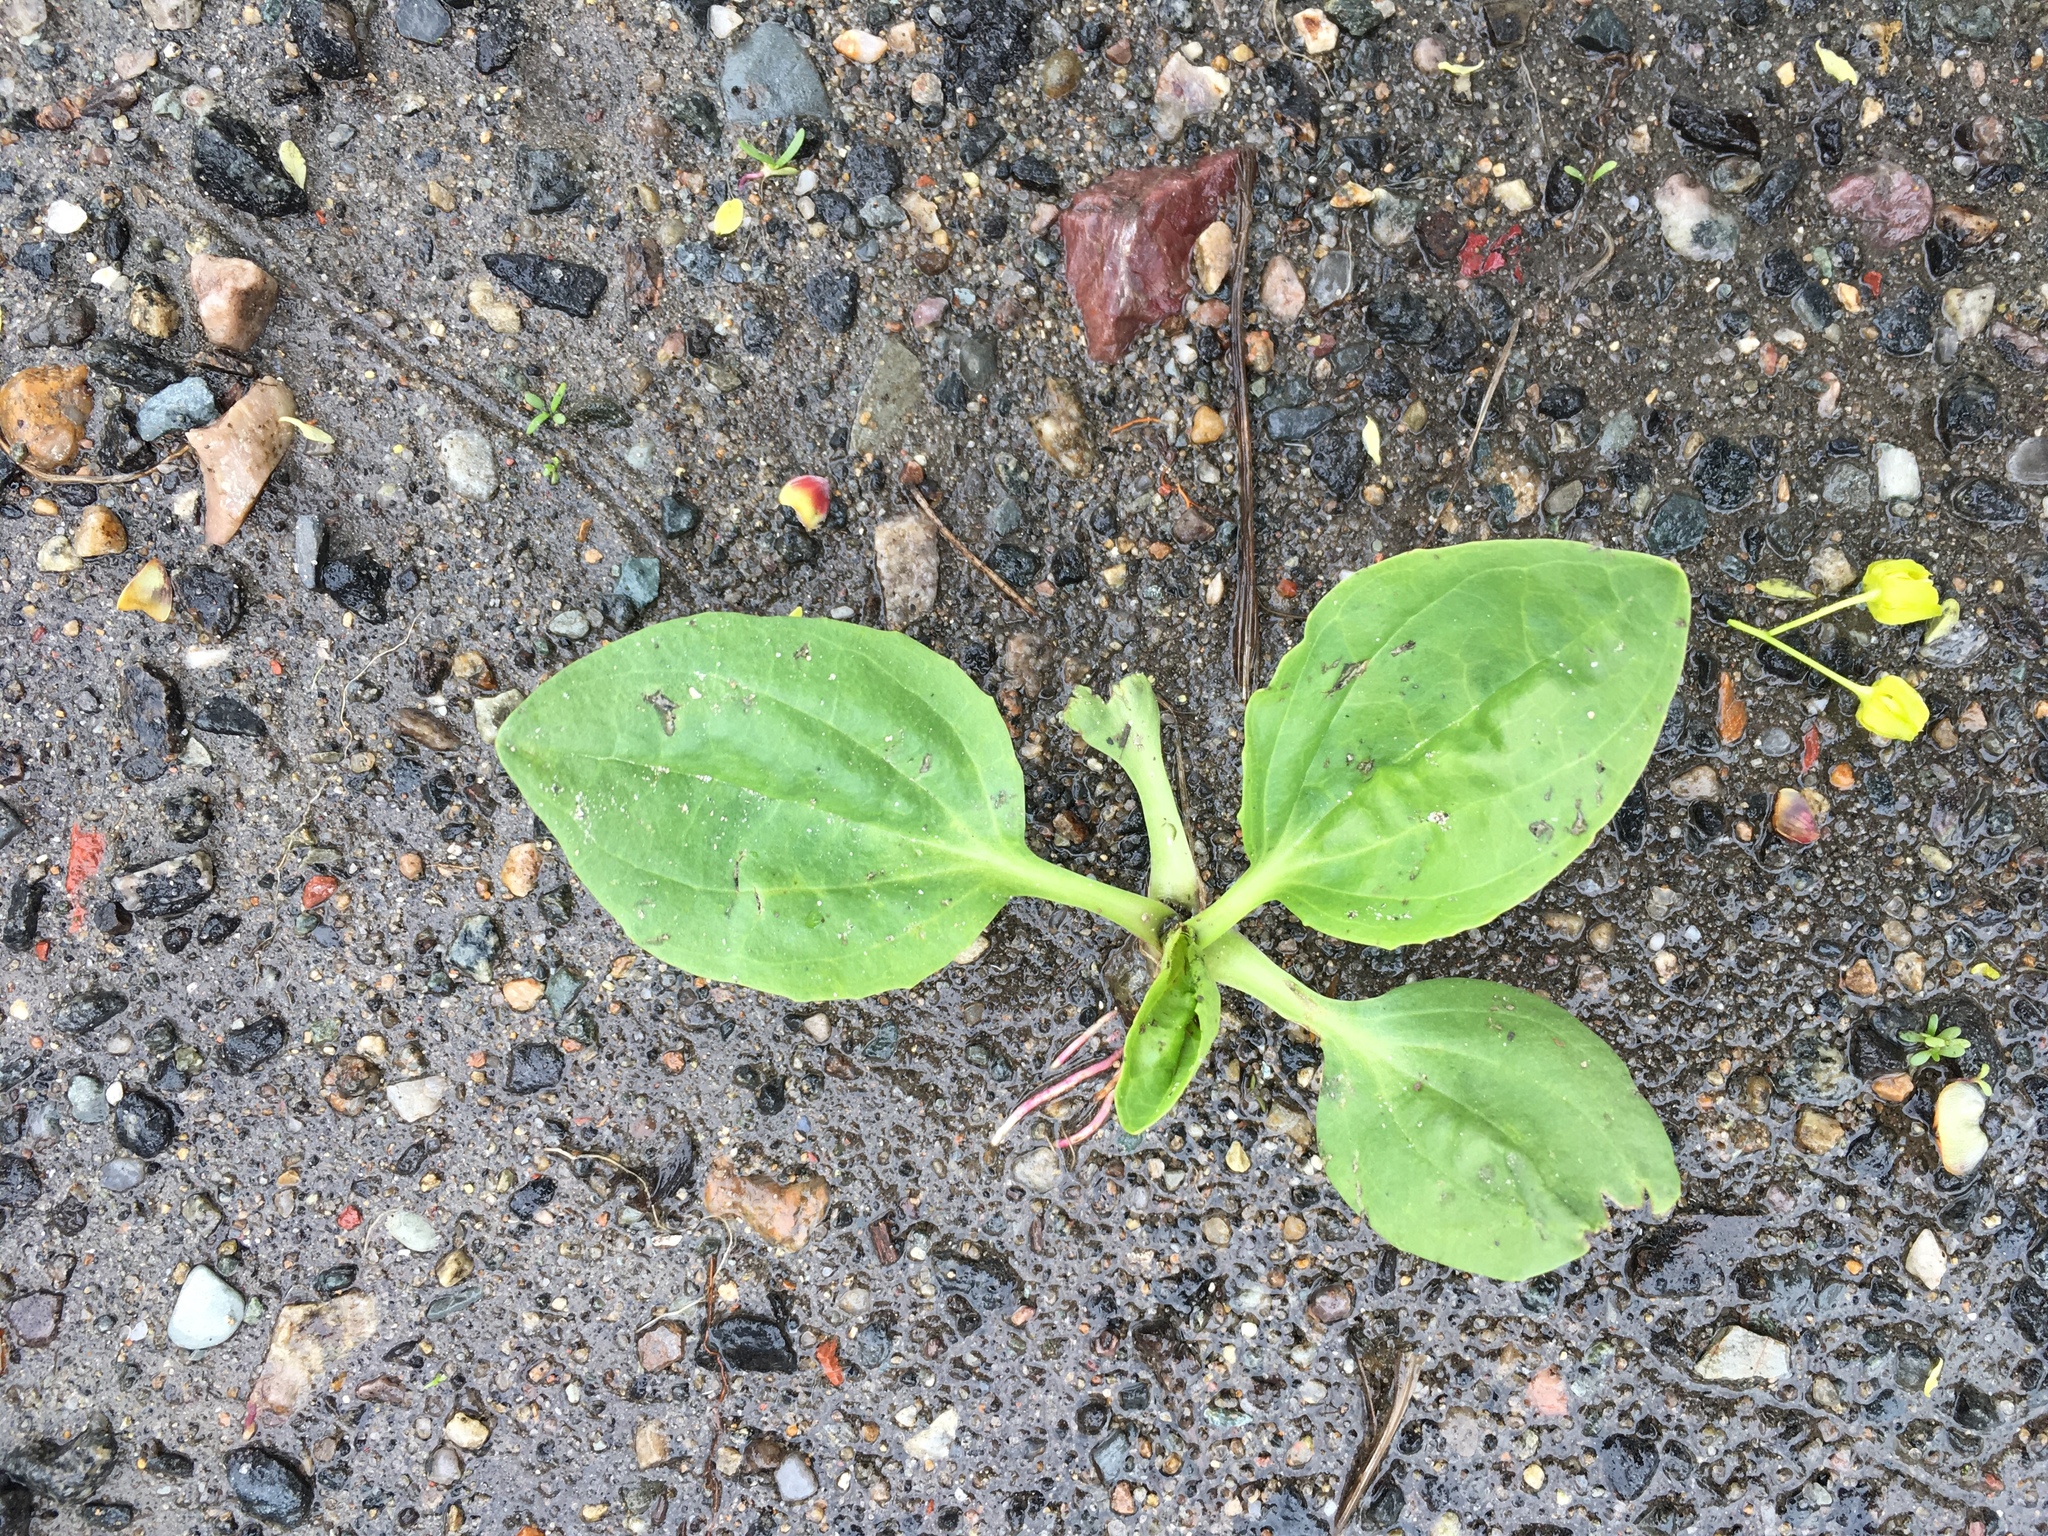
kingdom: Plantae
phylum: Tracheophyta
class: Magnoliopsida
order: Lamiales
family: Plantaginaceae
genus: Plantago
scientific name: Plantago major
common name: Common plantain
